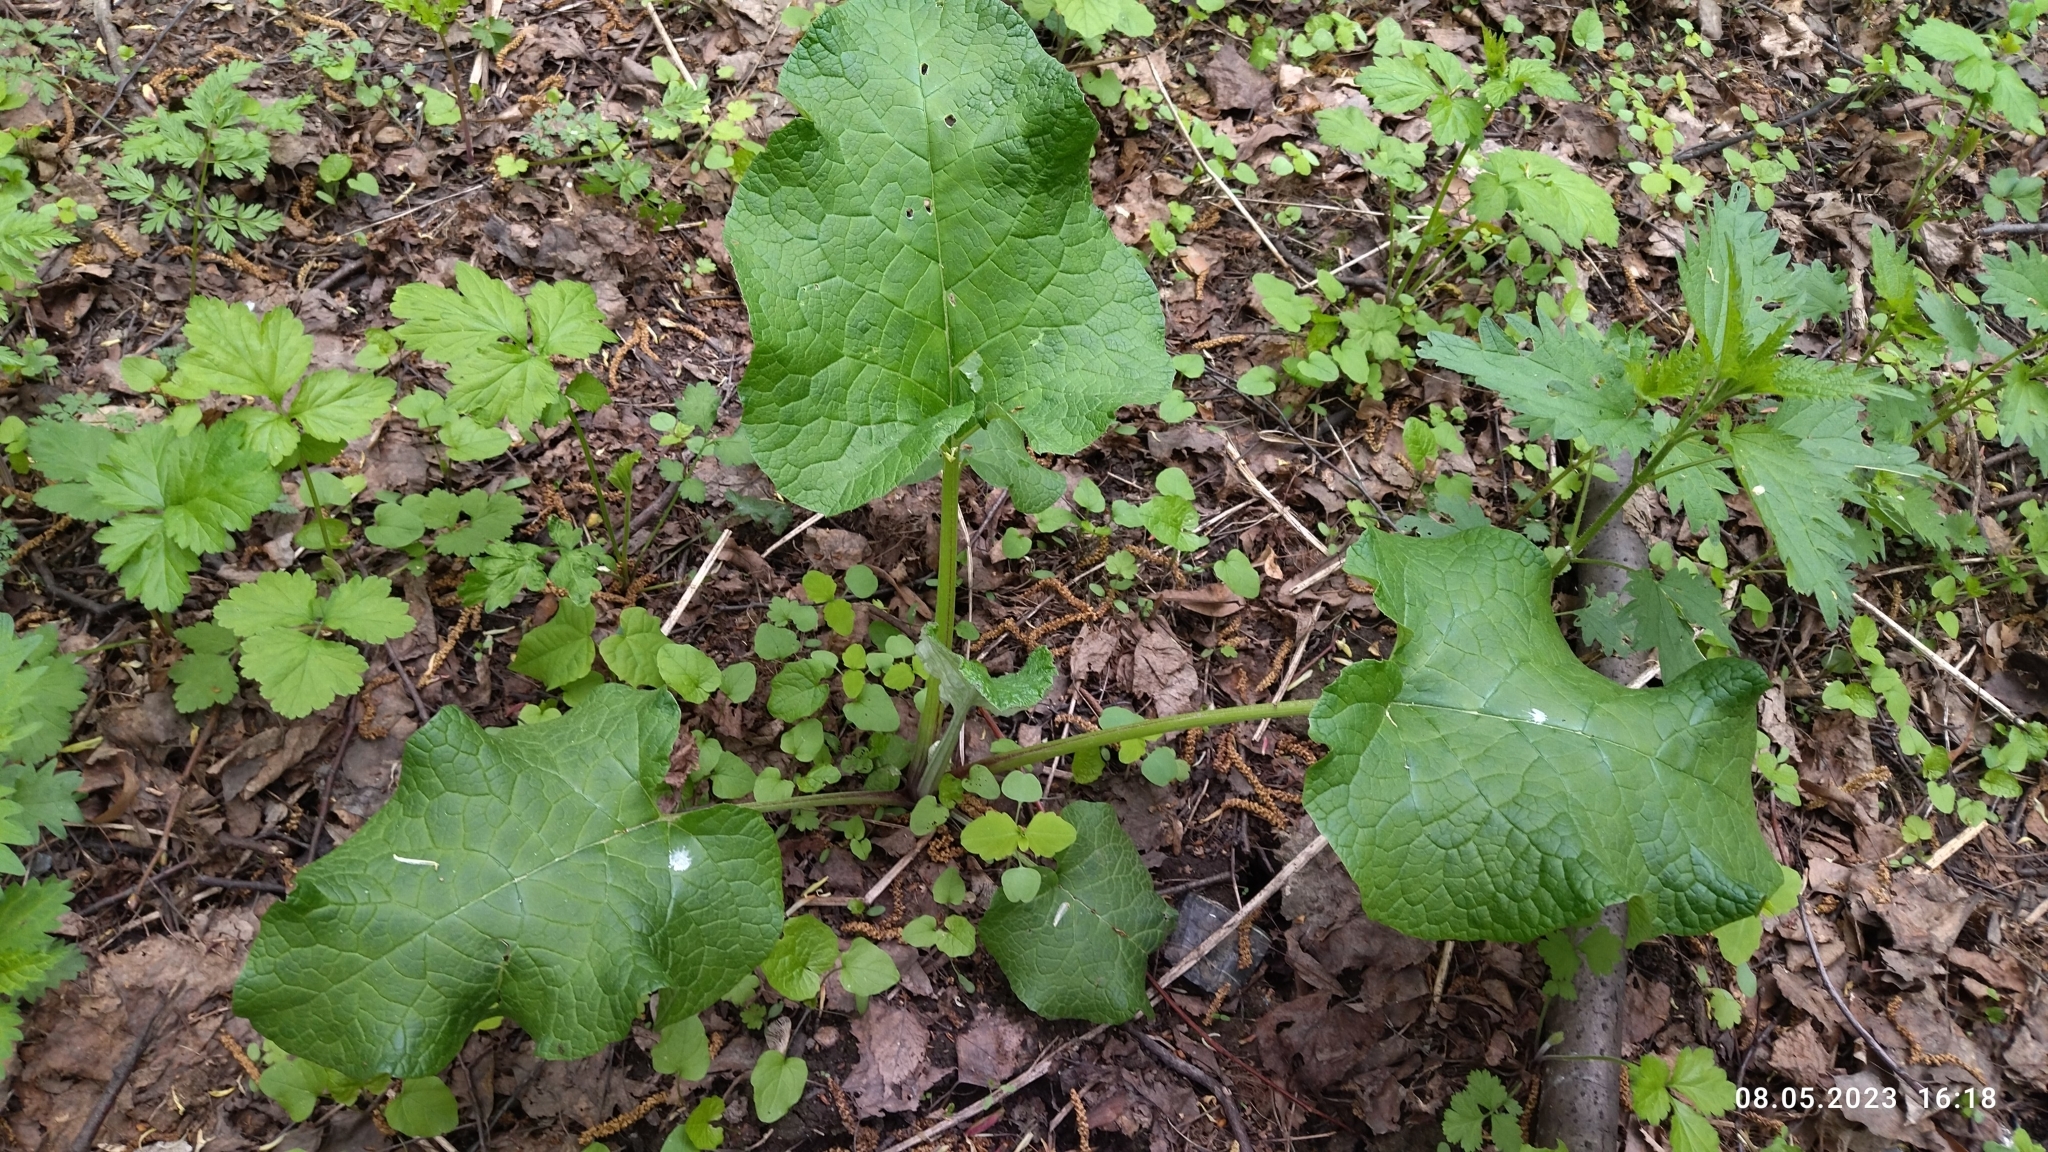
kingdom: Plantae
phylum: Tracheophyta
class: Magnoliopsida
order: Asterales
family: Asteraceae
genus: Arctium
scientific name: Arctium
